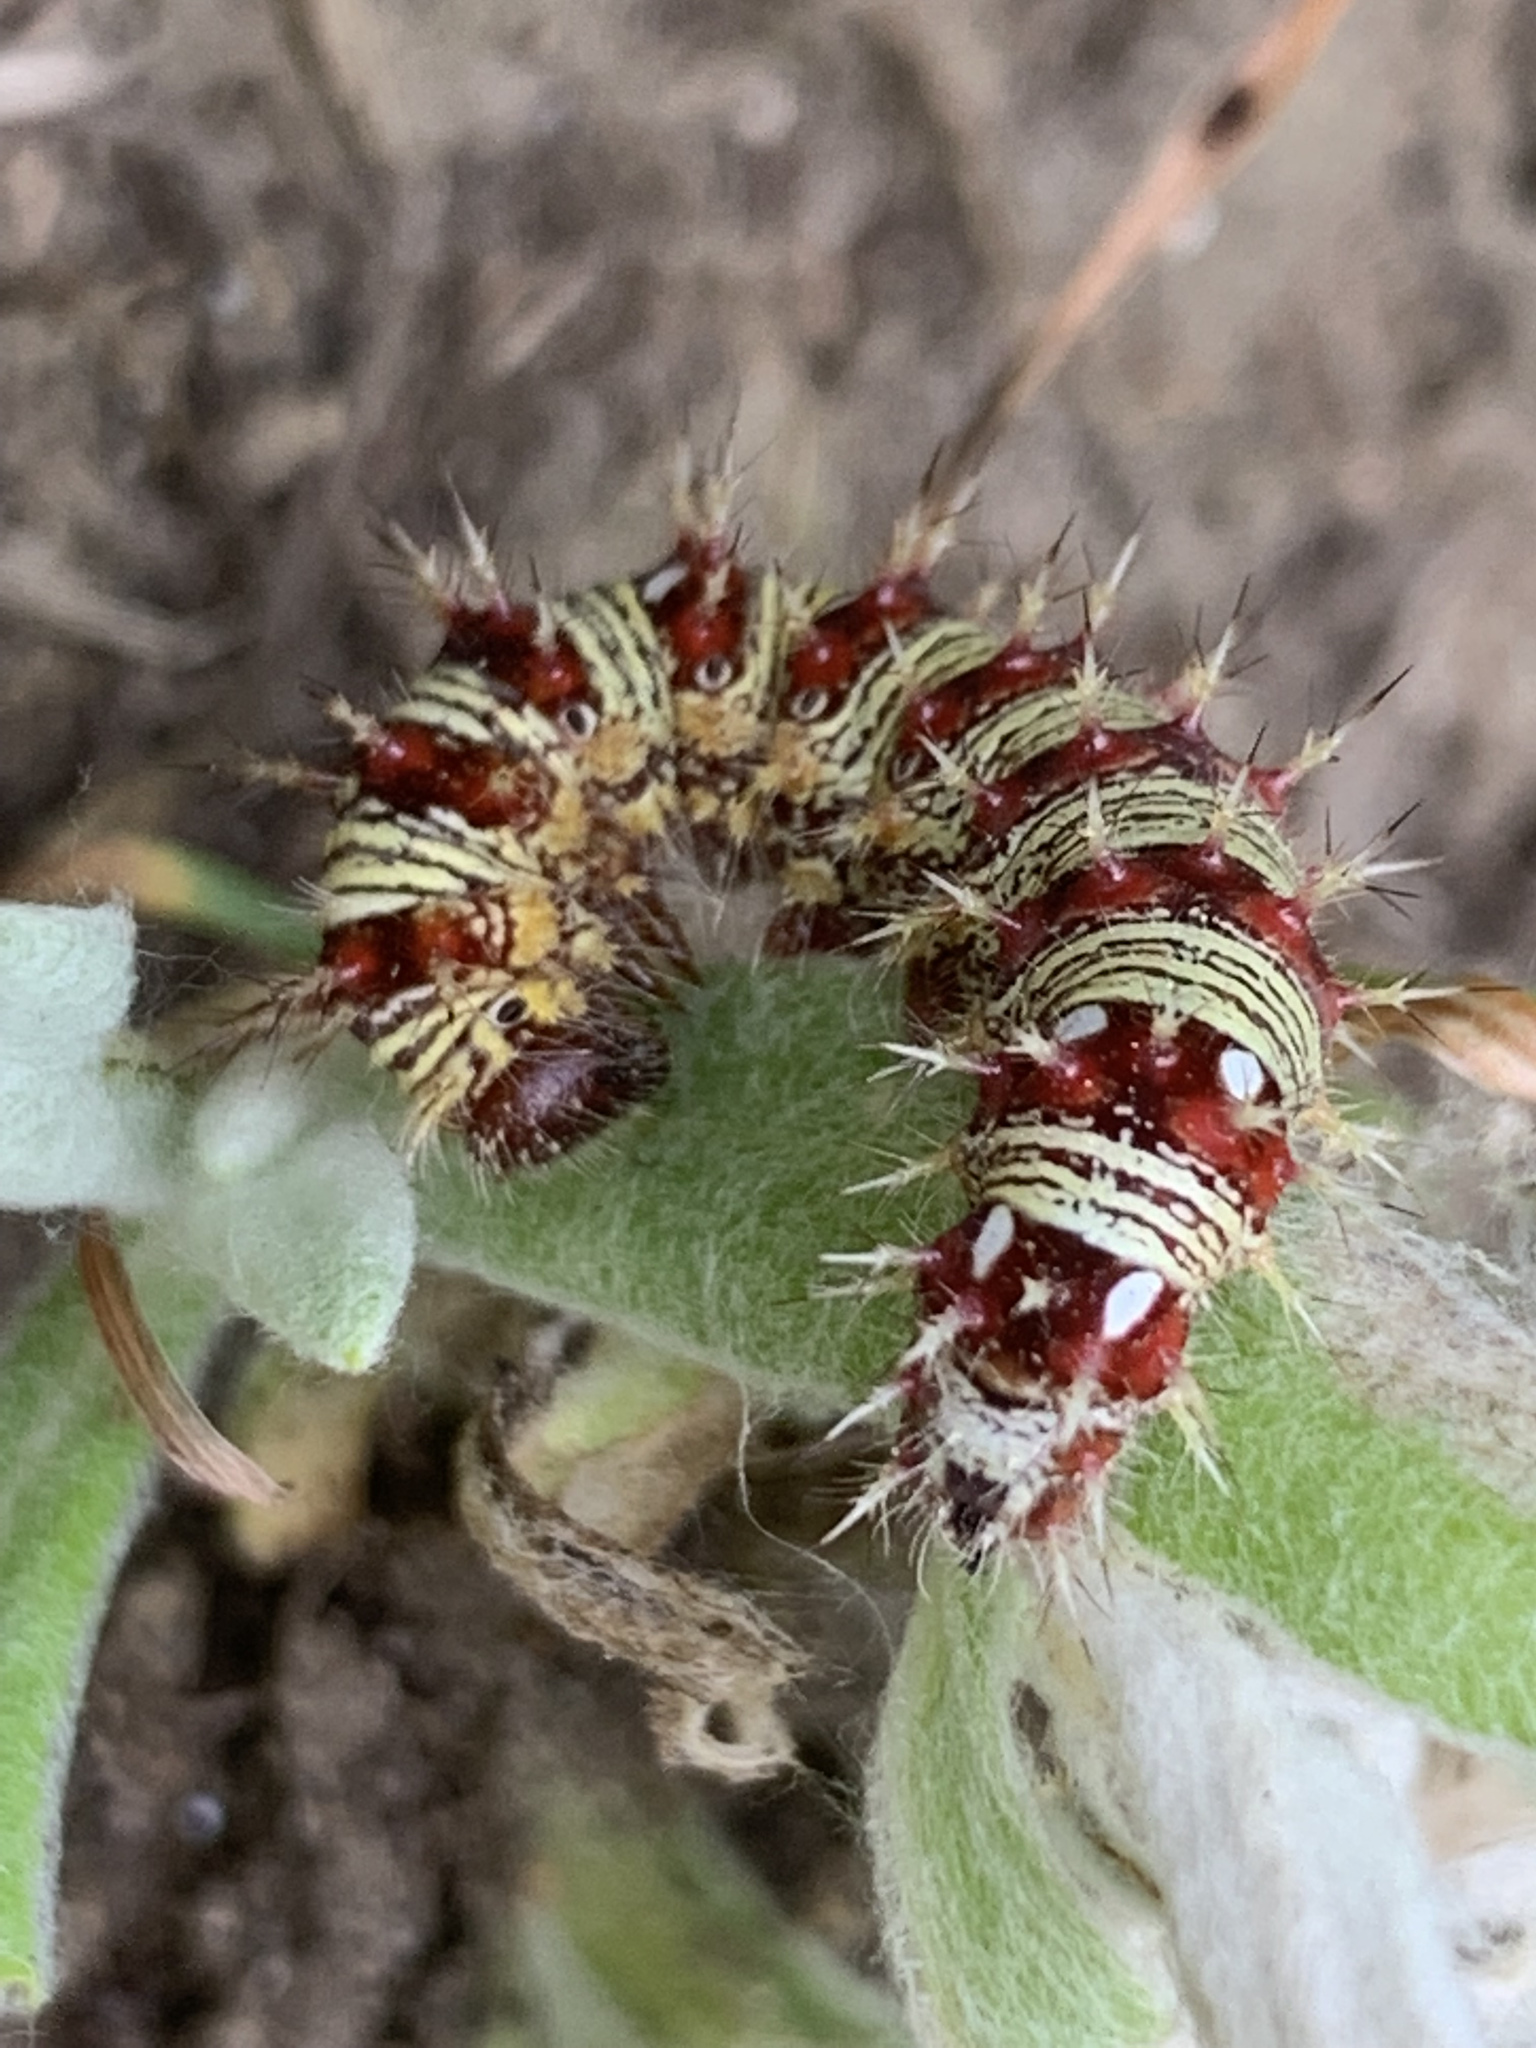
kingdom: Animalia
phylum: Arthropoda
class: Insecta
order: Lepidoptera
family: Nymphalidae
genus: Vanessa
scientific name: Vanessa virginiensis
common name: American lady
